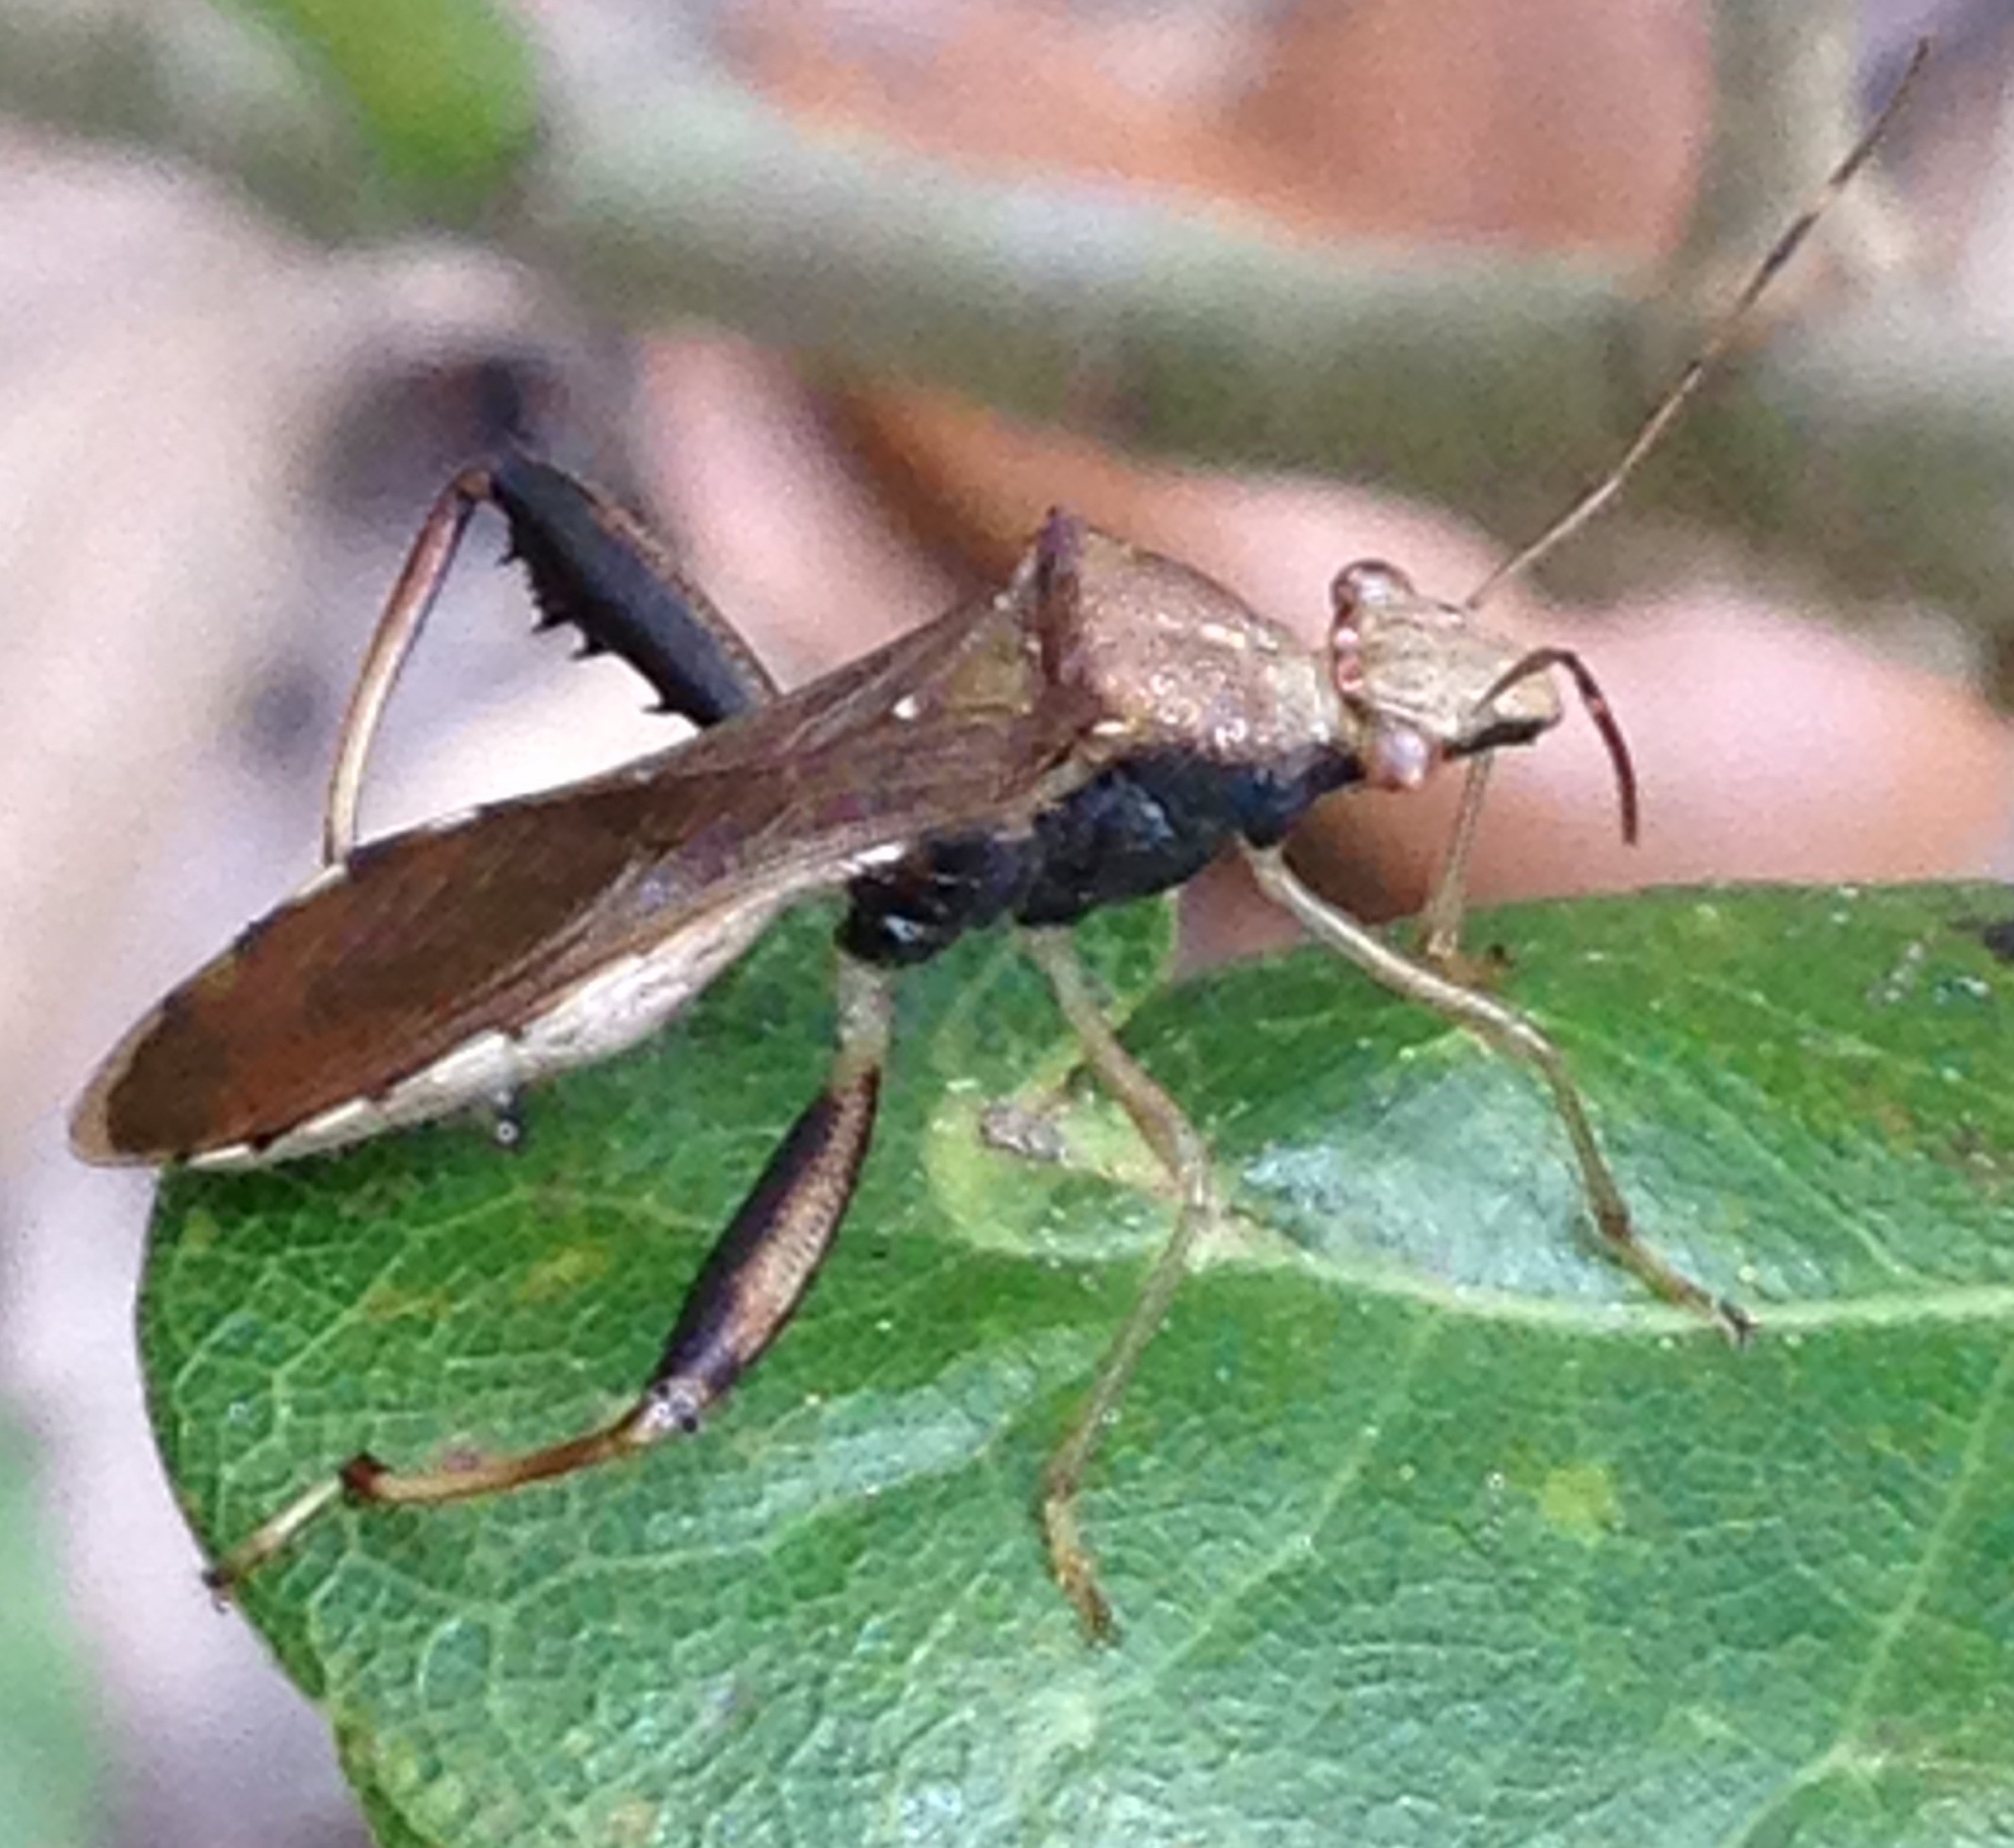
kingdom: Animalia
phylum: Arthropoda
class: Insecta
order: Hemiptera
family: Alydidae
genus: Hyalymenus
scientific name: Hyalymenus tarsatus
